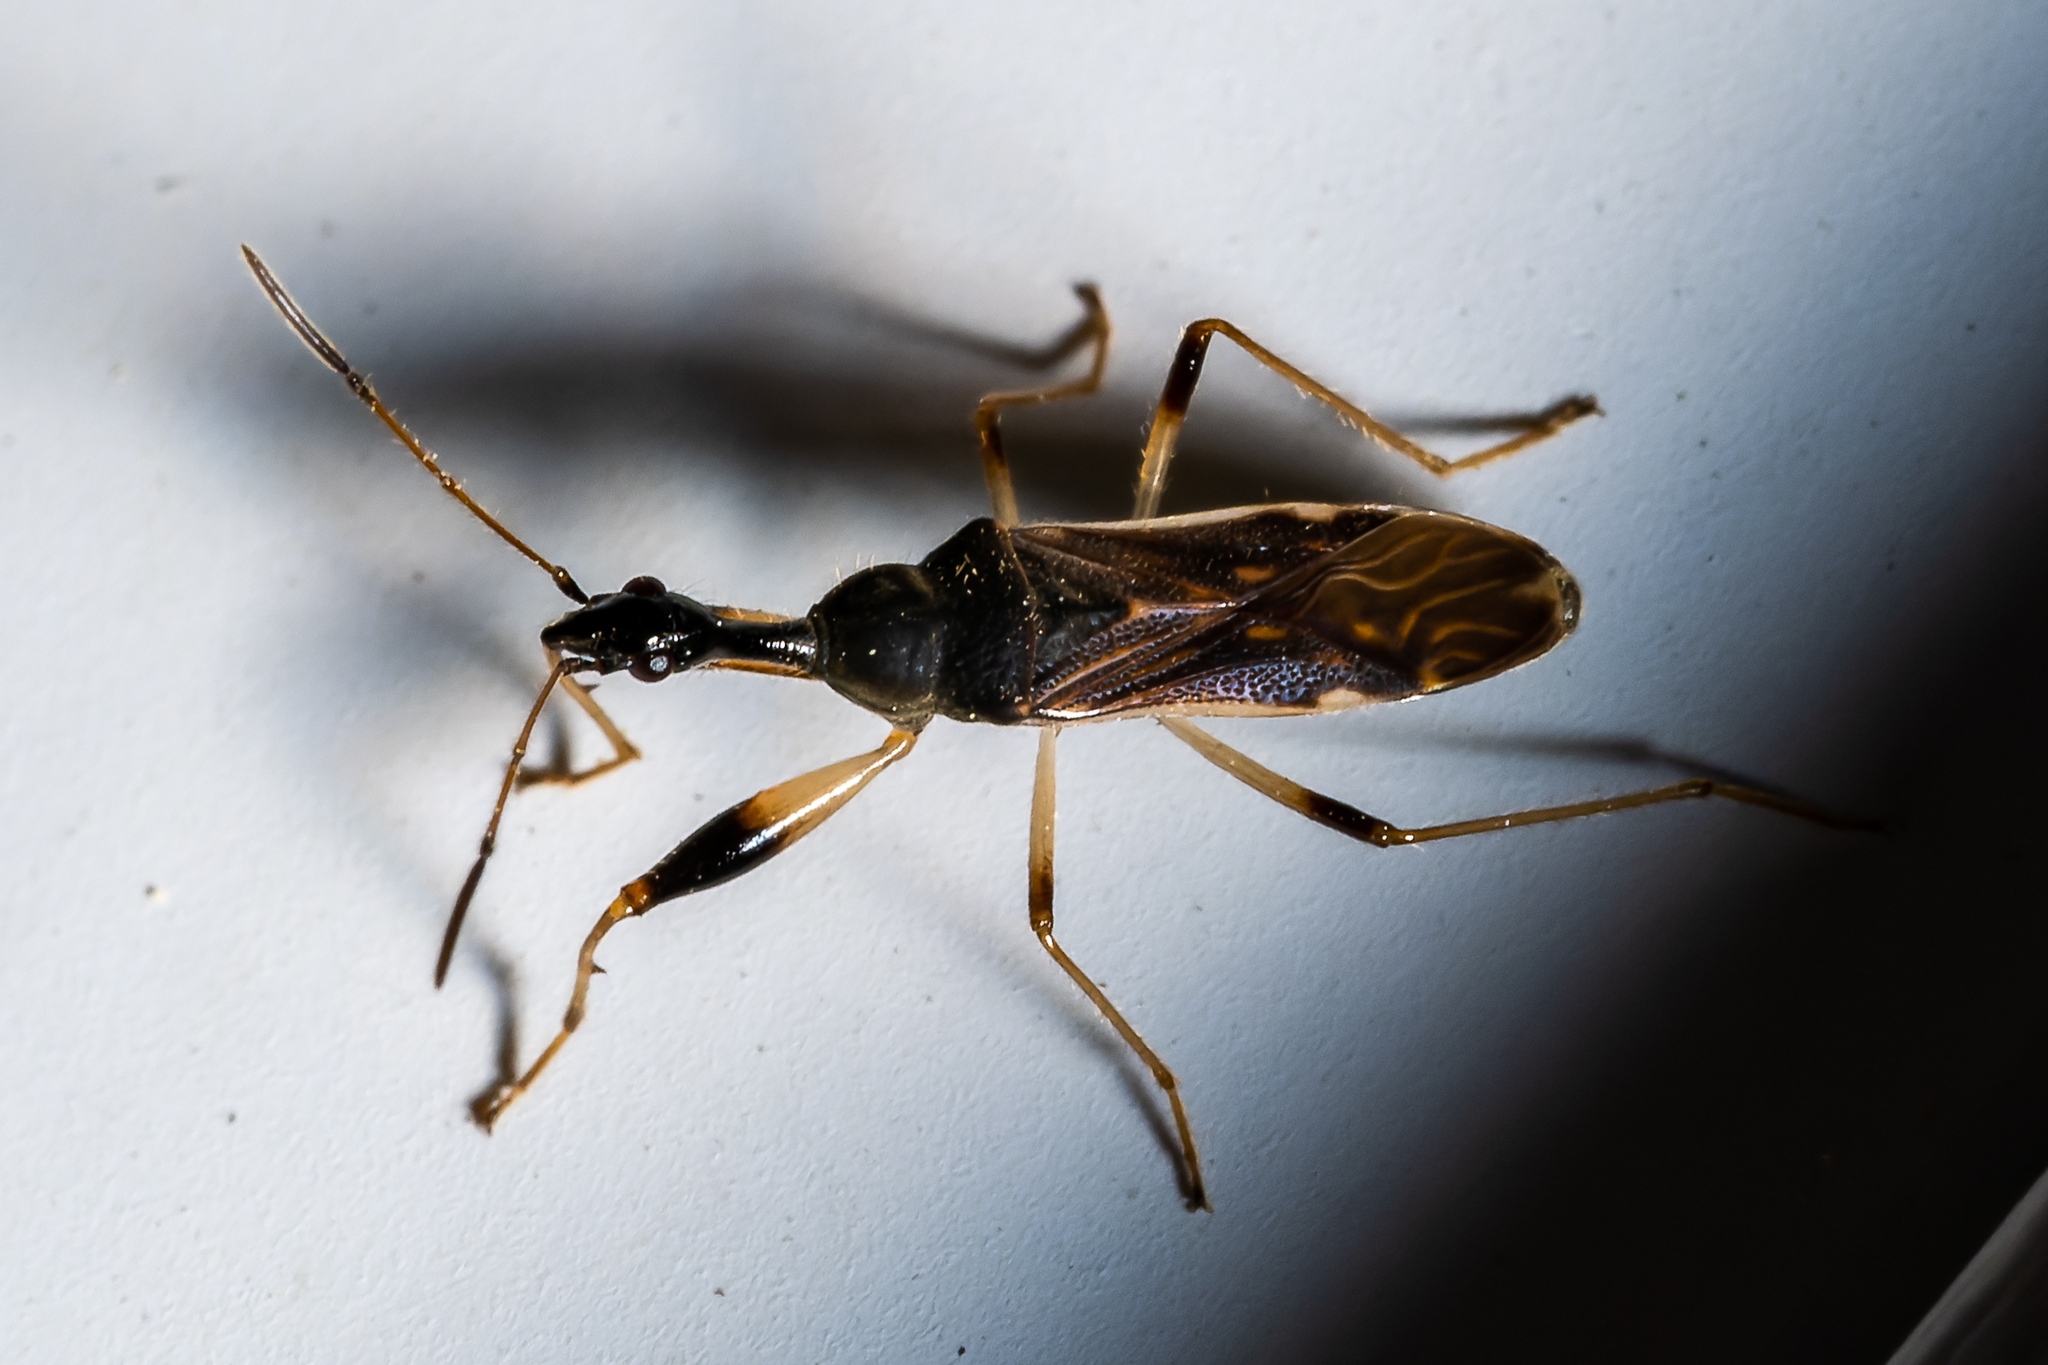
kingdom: Animalia
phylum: Arthropoda
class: Insecta
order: Hemiptera
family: Rhyparochromidae
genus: Myodocha
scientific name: Myodocha serripes
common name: Long-necked seed bug
